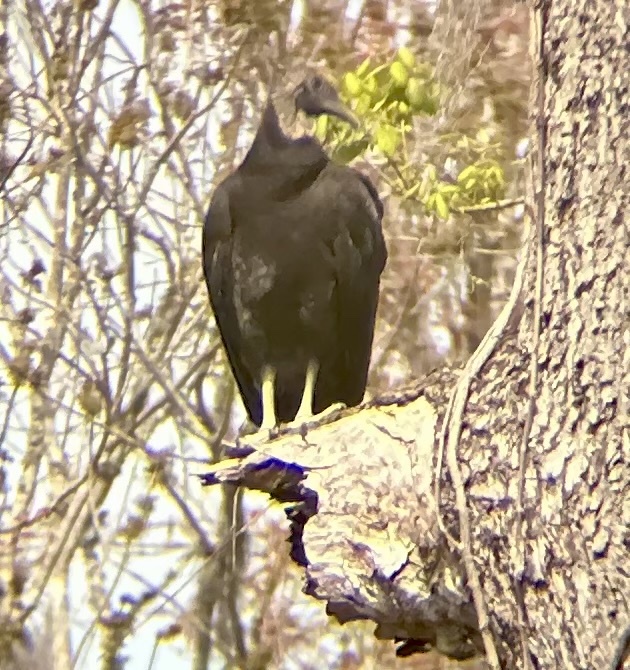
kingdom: Animalia
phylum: Chordata
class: Aves
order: Accipitriformes
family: Cathartidae
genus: Coragyps
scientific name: Coragyps atratus
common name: Black vulture
